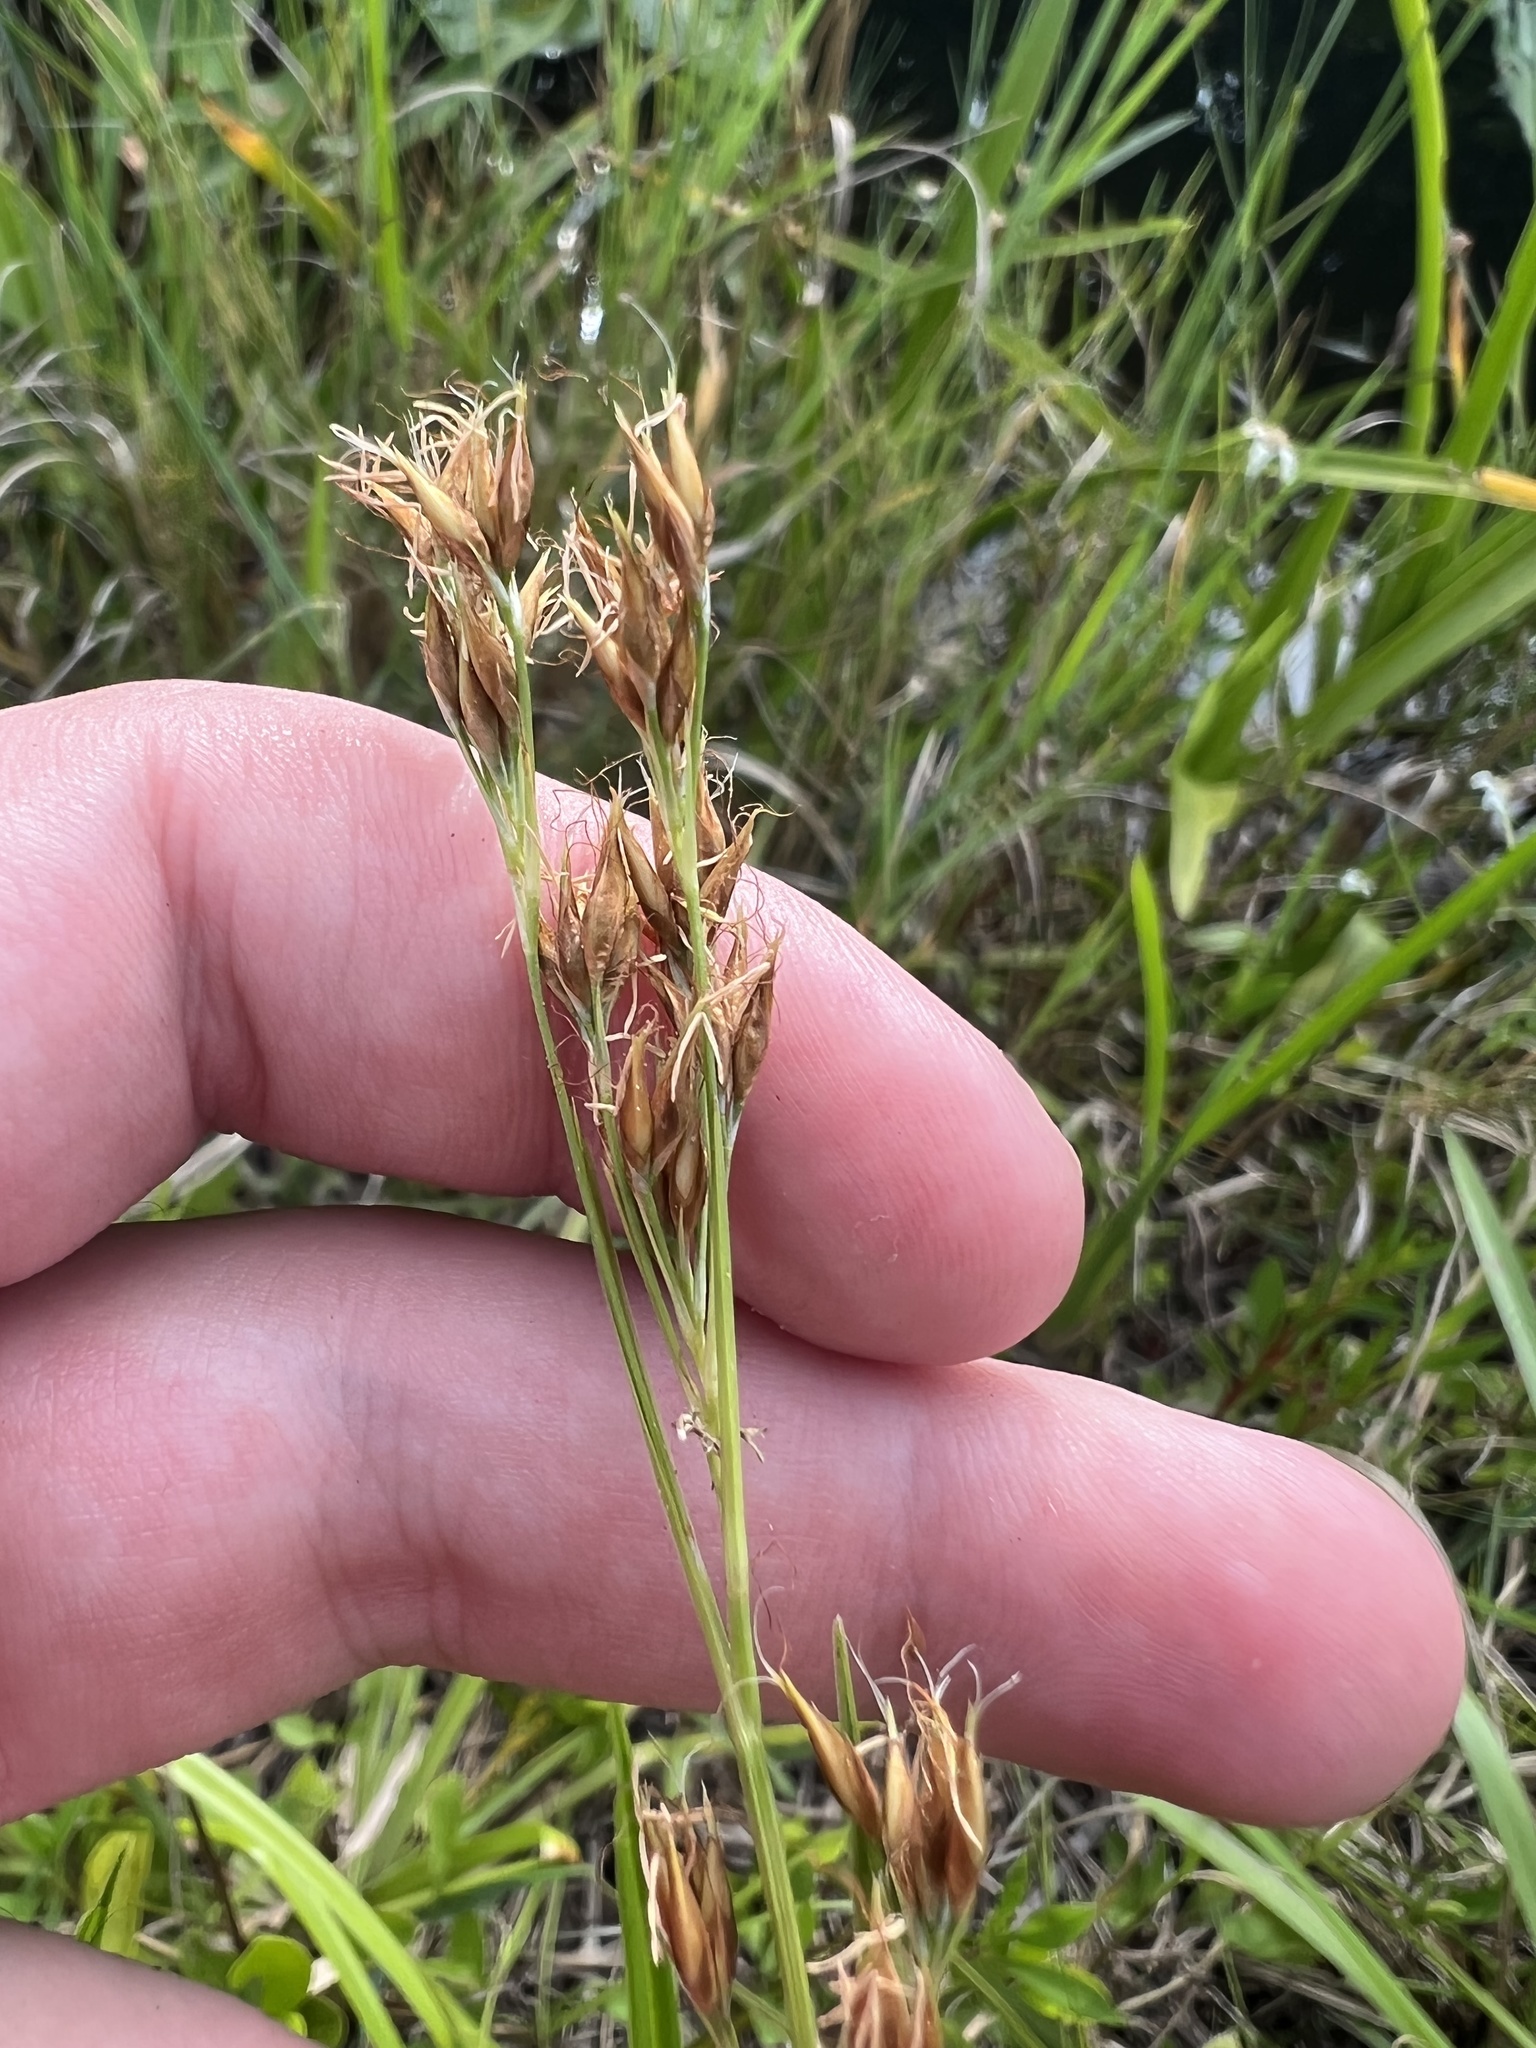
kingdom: Plantae
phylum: Tracheophyta
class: Liliopsida
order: Poales
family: Cyperaceae
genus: Rhynchospora
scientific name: Rhynchospora odorata
